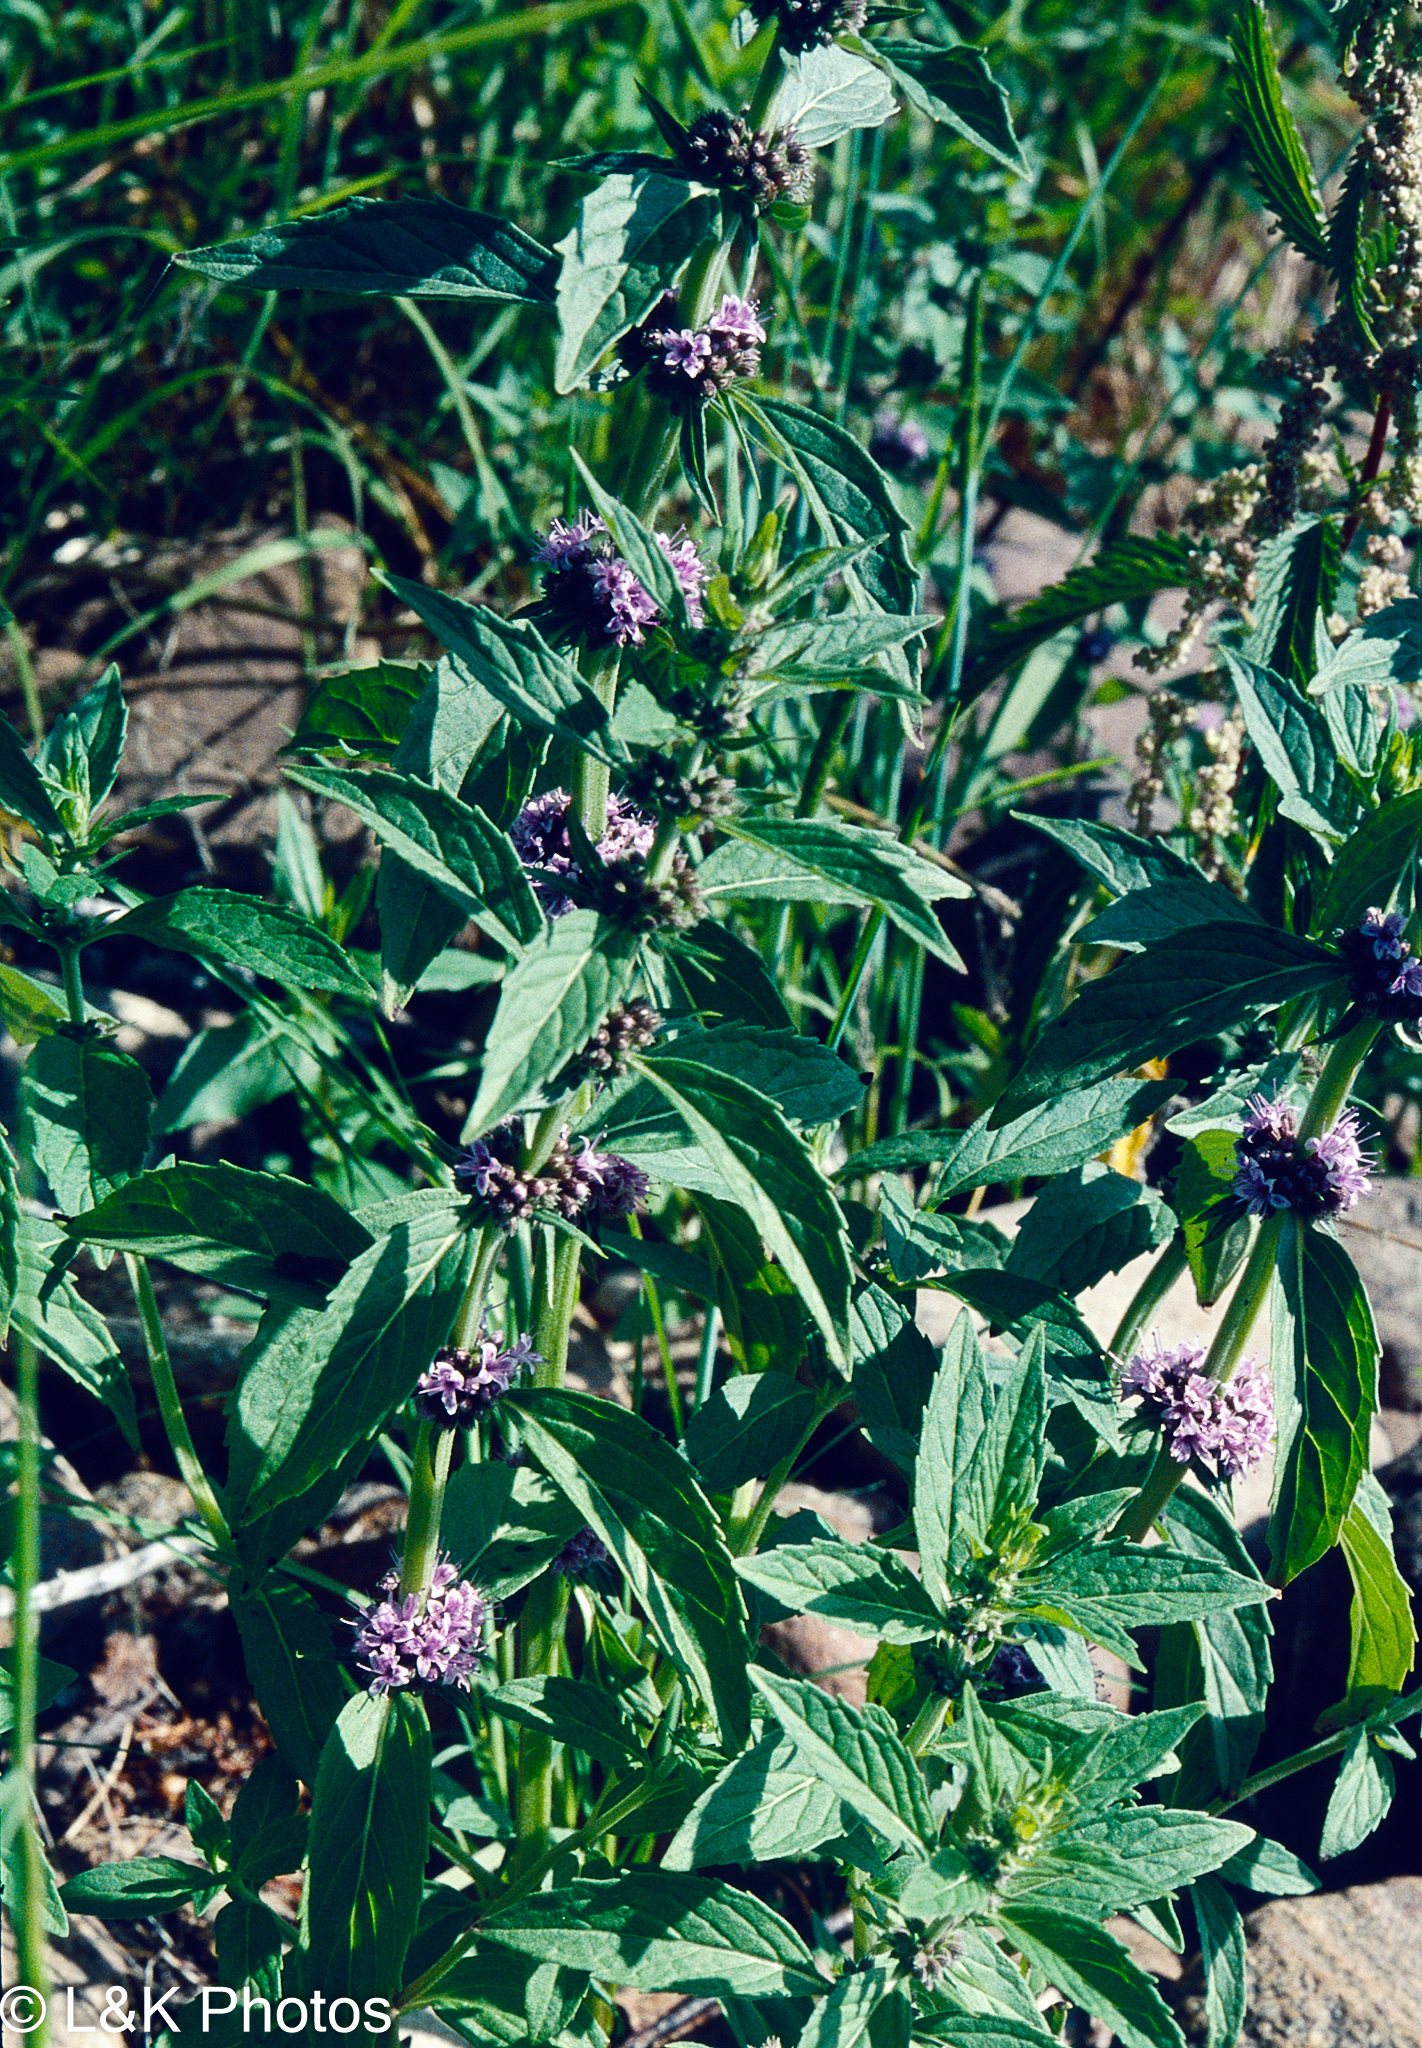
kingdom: Plantae
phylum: Tracheophyta
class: Magnoliopsida
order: Lamiales
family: Lamiaceae
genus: Mentha
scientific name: Mentha canadensis
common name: American corn mint
